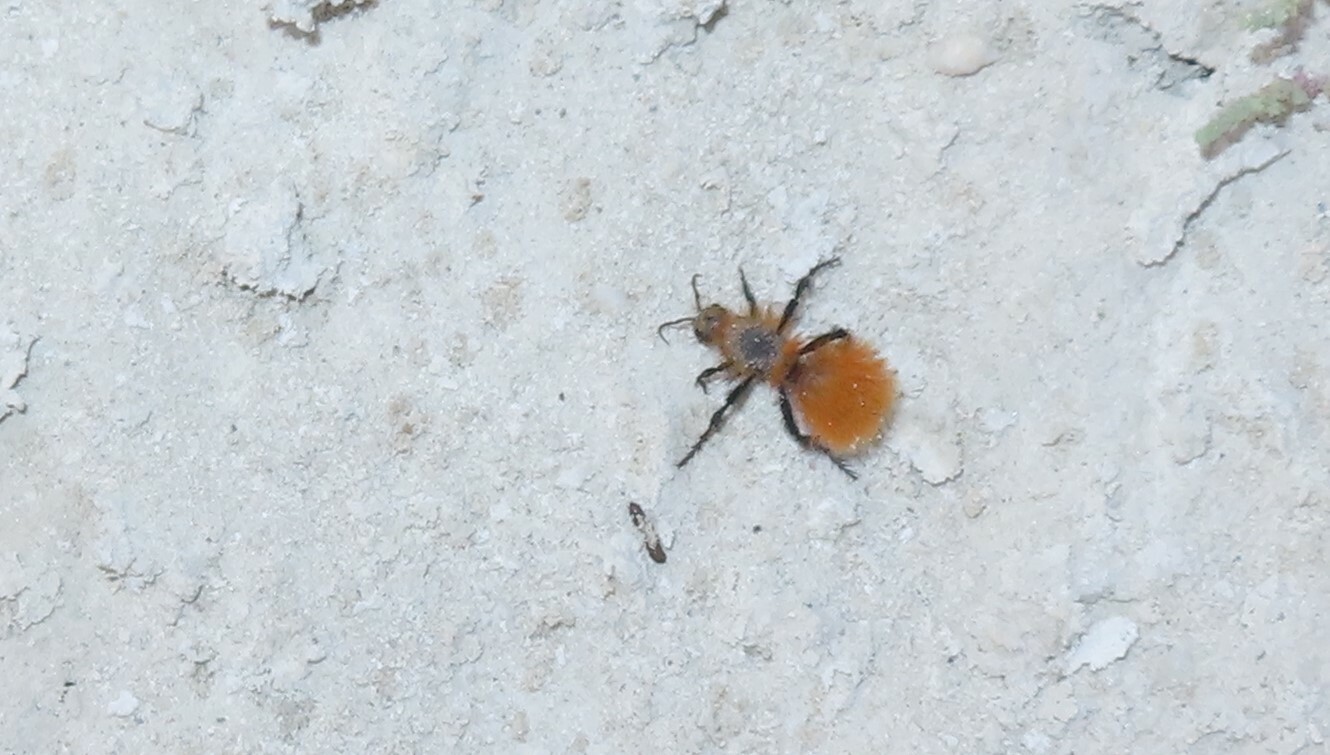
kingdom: Animalia
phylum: Arthropoda
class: Insecta
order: Hymenoptera
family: Mutillidae
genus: Dasymutilla
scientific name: Dasymutilla satanas
